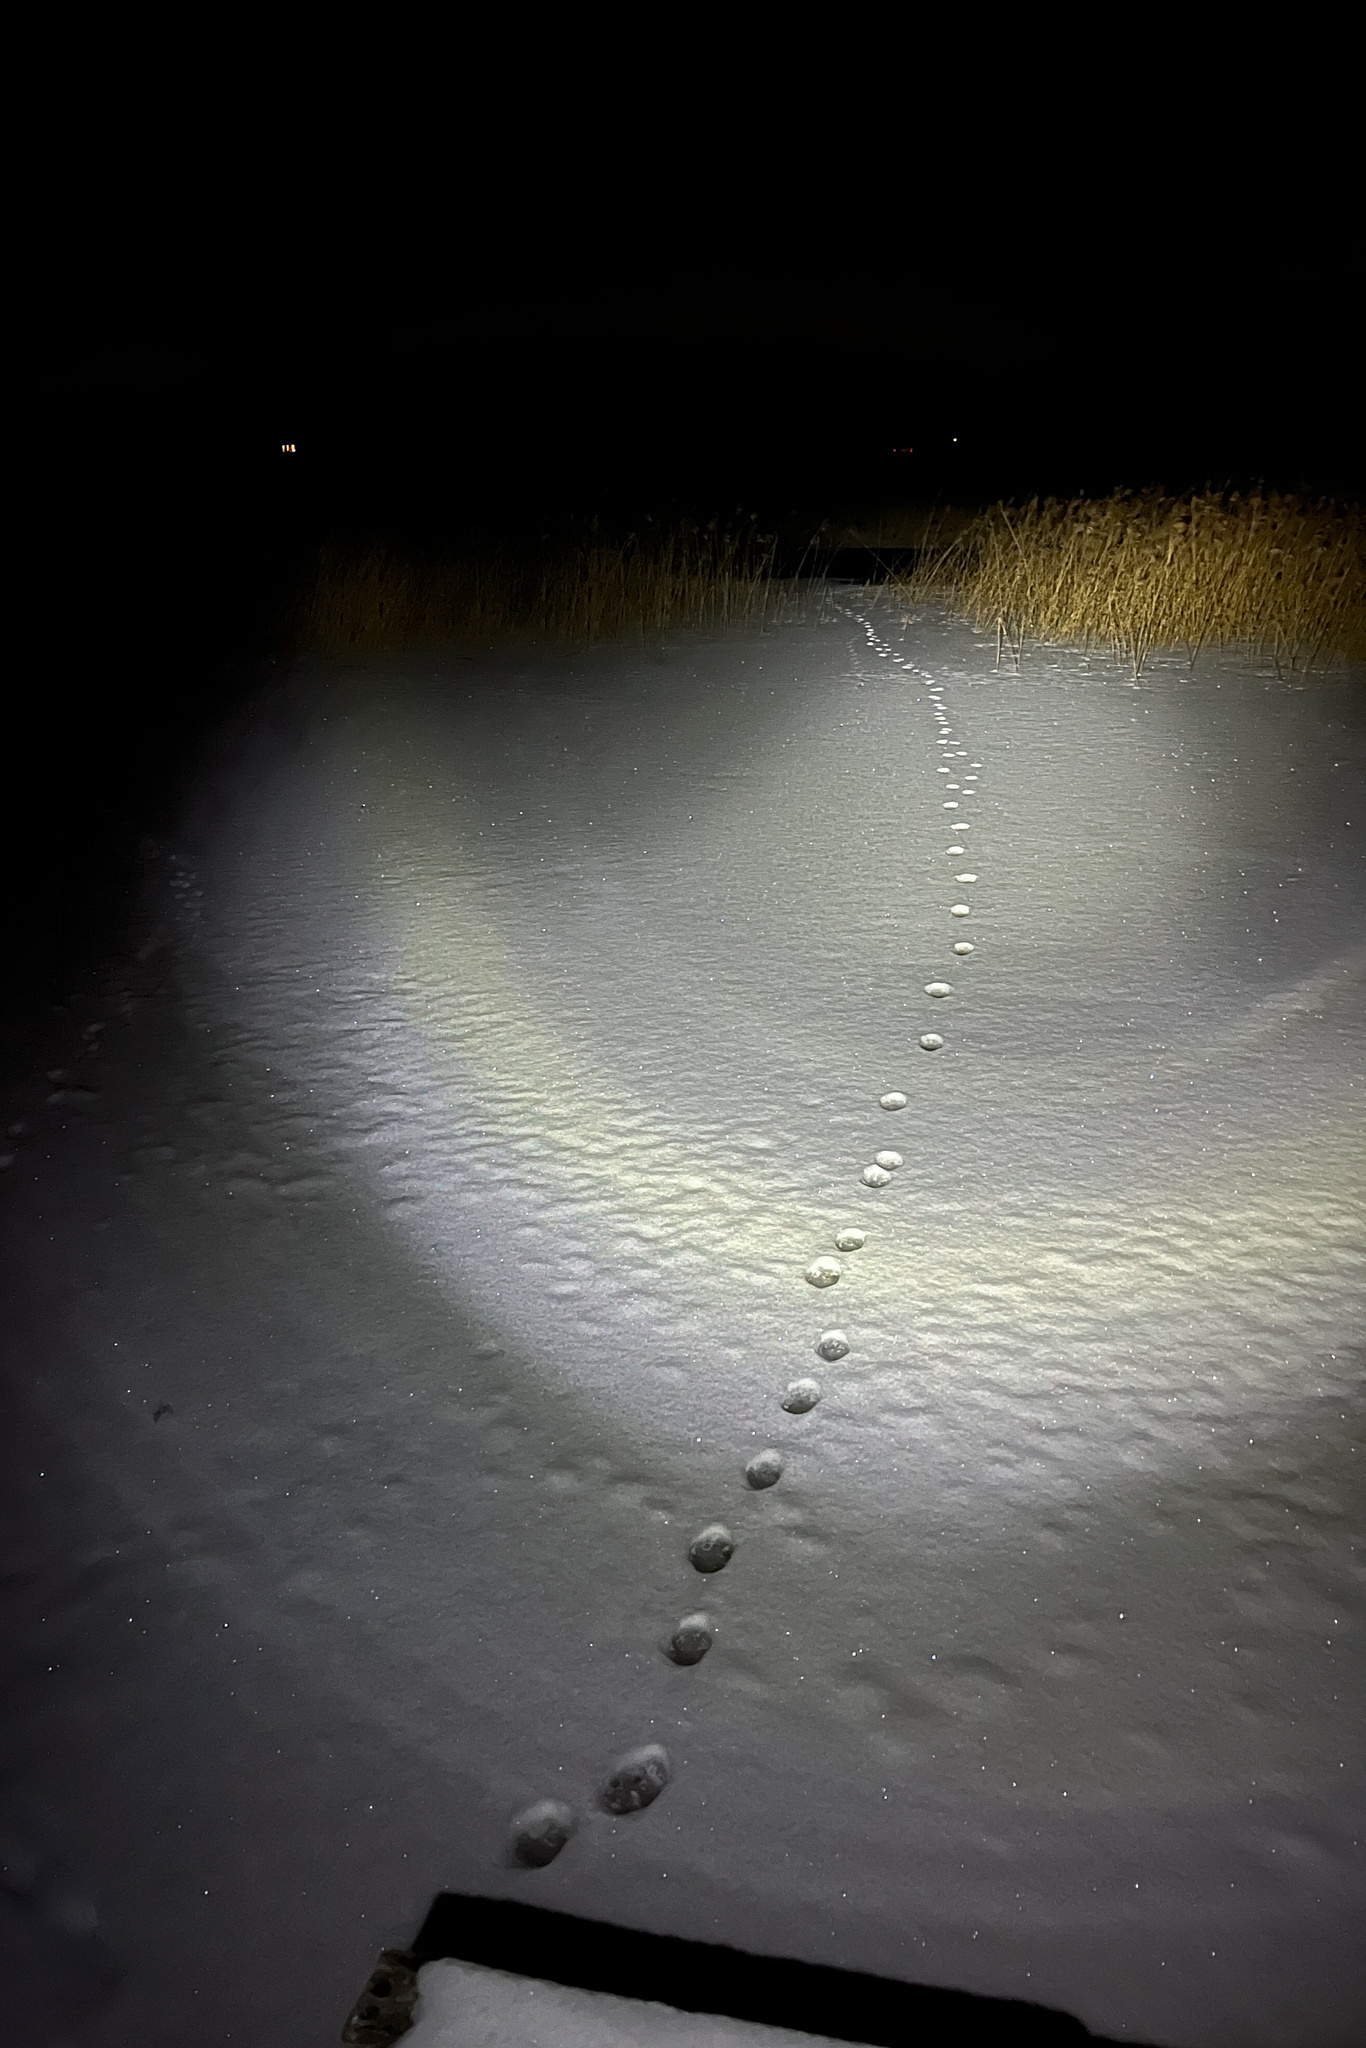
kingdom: Animalia
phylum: Chordata
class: Mammalia
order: Carnivora
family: Felidae
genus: Lynx
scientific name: Lynx lynx
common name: Eurasian lynx
